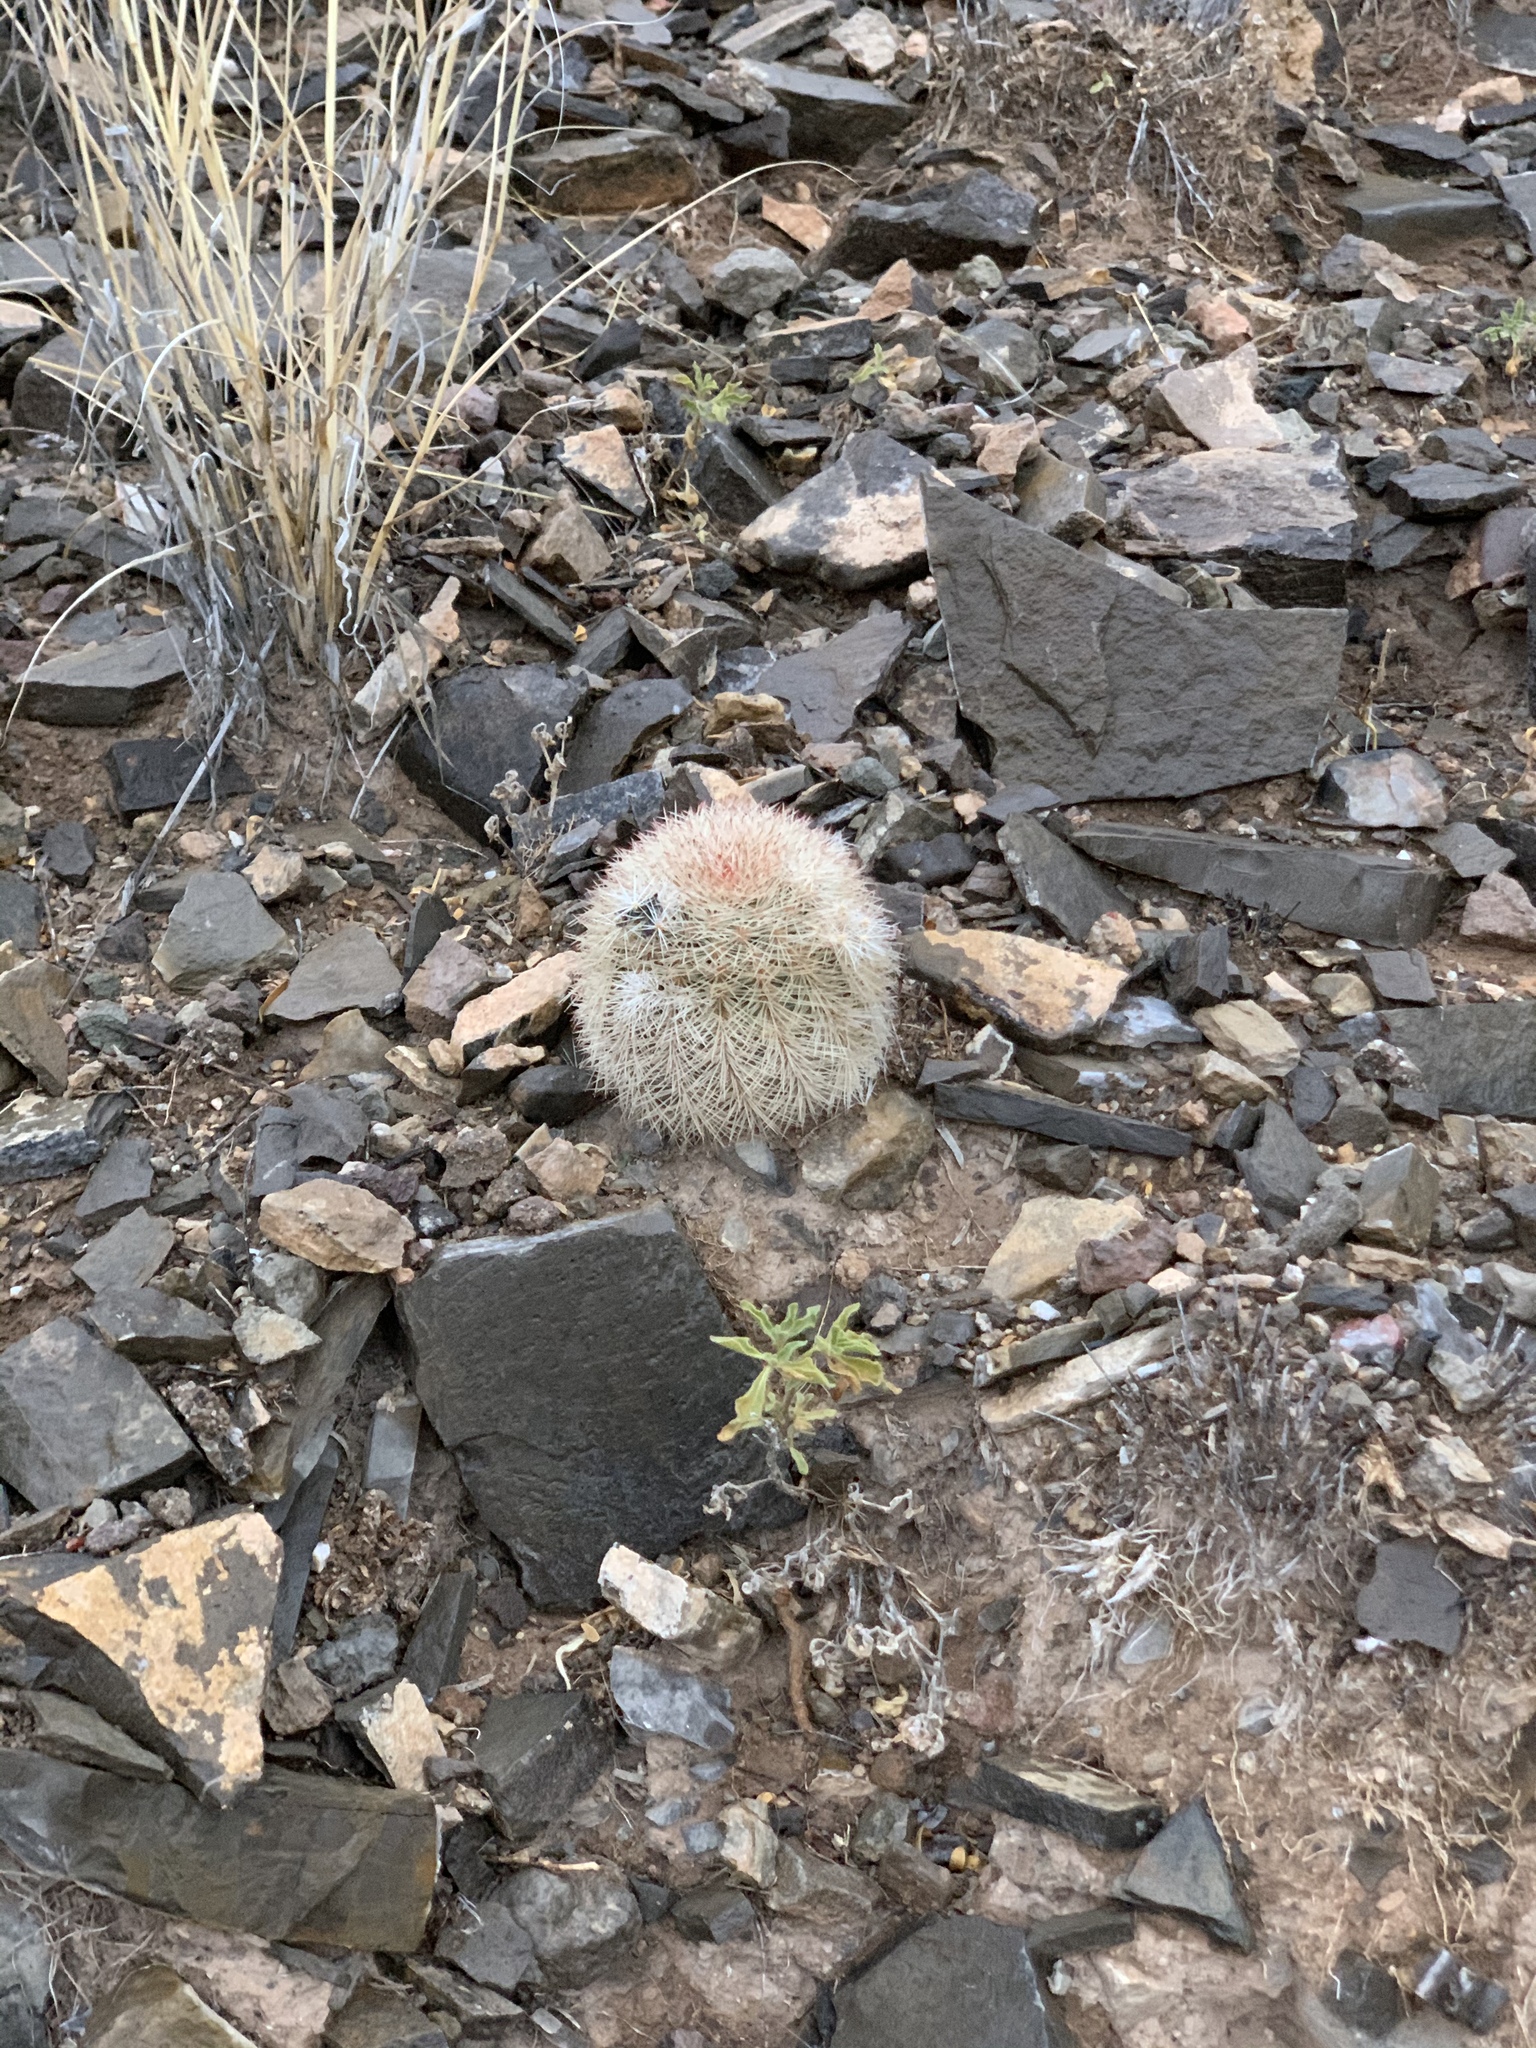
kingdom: Plantae
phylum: Tracheophyta
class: Magnoliopsida
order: Caryophyllales
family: Cactaceae
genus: Echinocereus
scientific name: Echinocereus dasyacanthus
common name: Spiny hedgehog cactus
